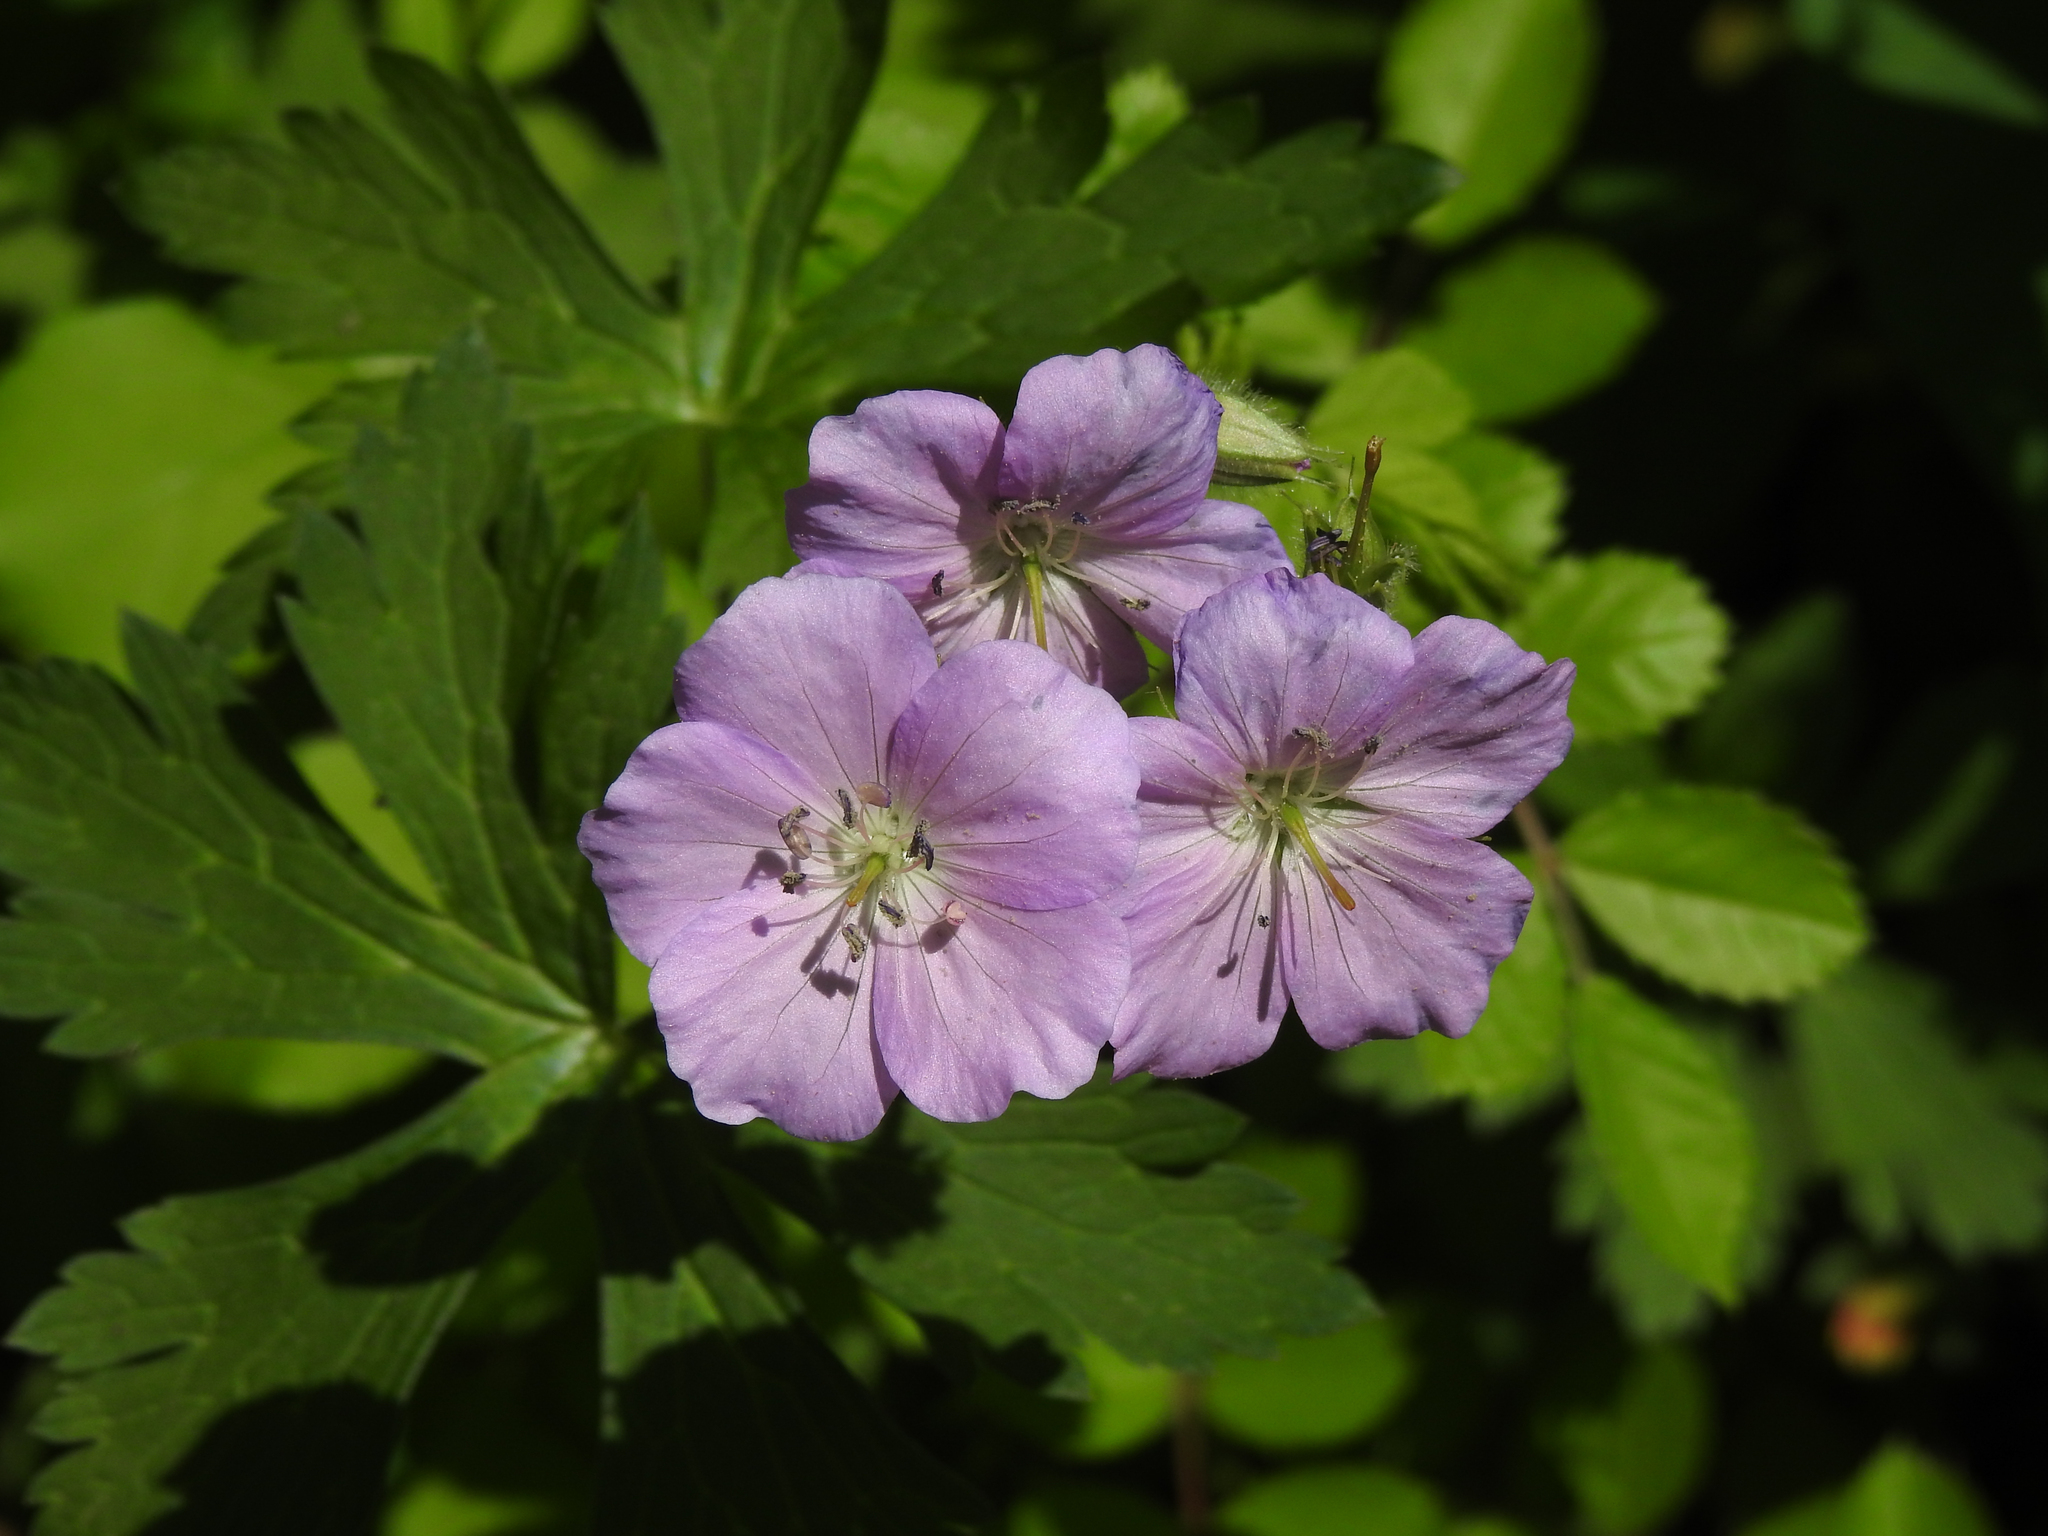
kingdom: Plantae
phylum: Tracheophyta
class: Magnoliopsida
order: Geraniales
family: Geraniaceae
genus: Geranium
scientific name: Geranium maculatum
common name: Spotted geranium
